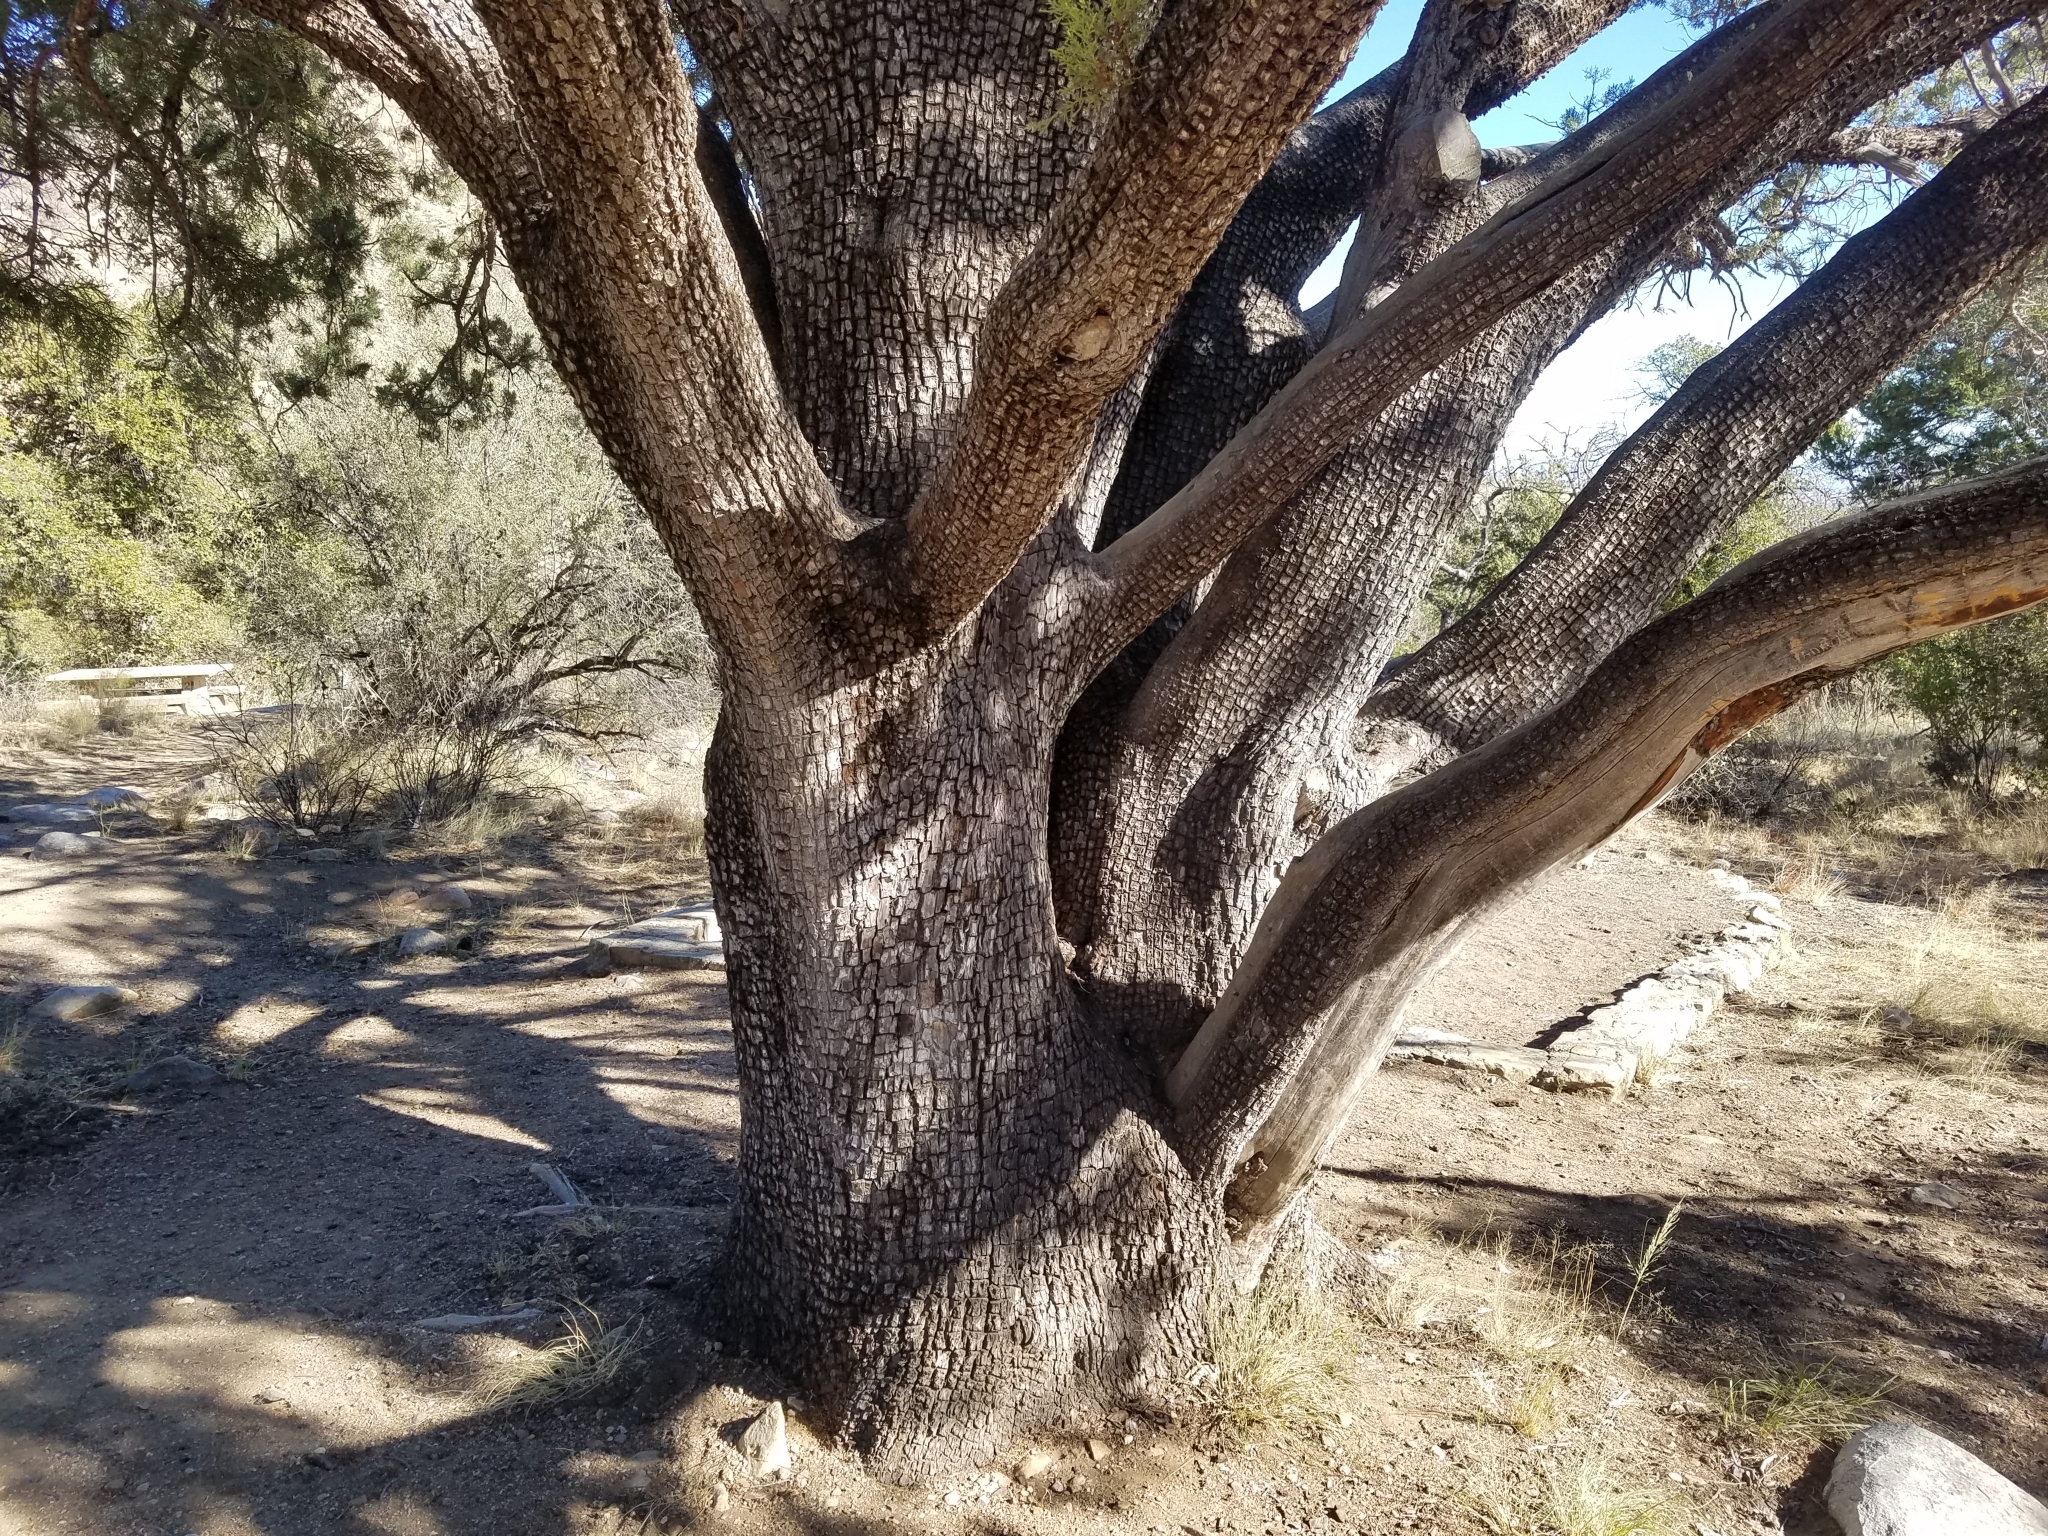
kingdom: Plantae
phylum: Tracheophyta
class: Pinopsida
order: Pinales
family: Cupressaceae
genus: Juniperus
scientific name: Juniperus deppeana
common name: Alligator juniper
